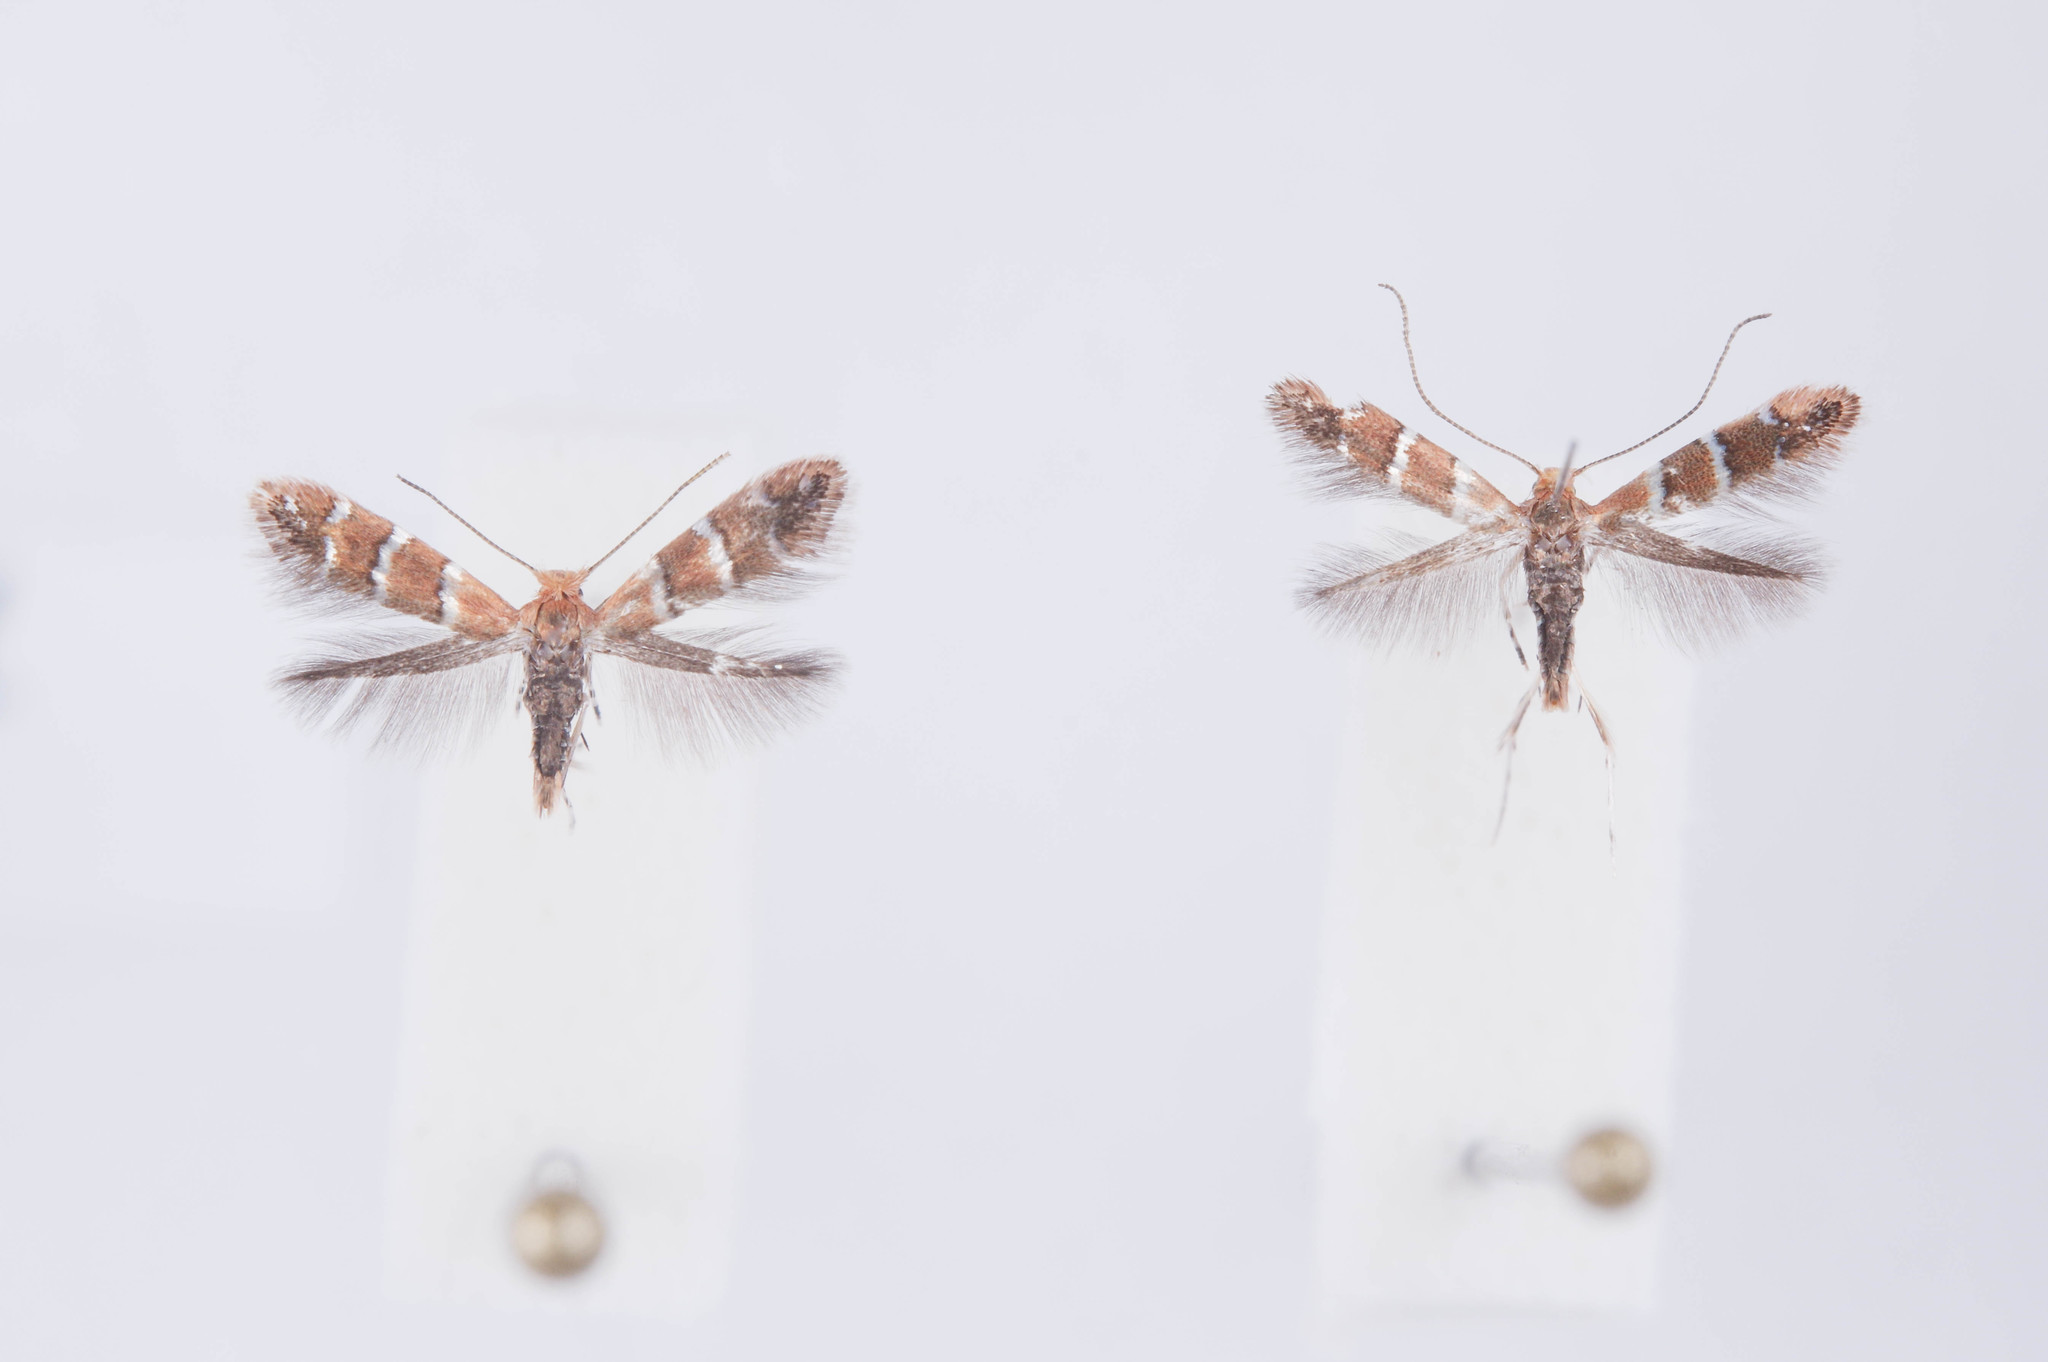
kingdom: Animalia
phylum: Arthropoda
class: Insecta
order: Lepidoptera
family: Gracillariidae
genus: Cameraria
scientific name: Cameraria obstrictella
